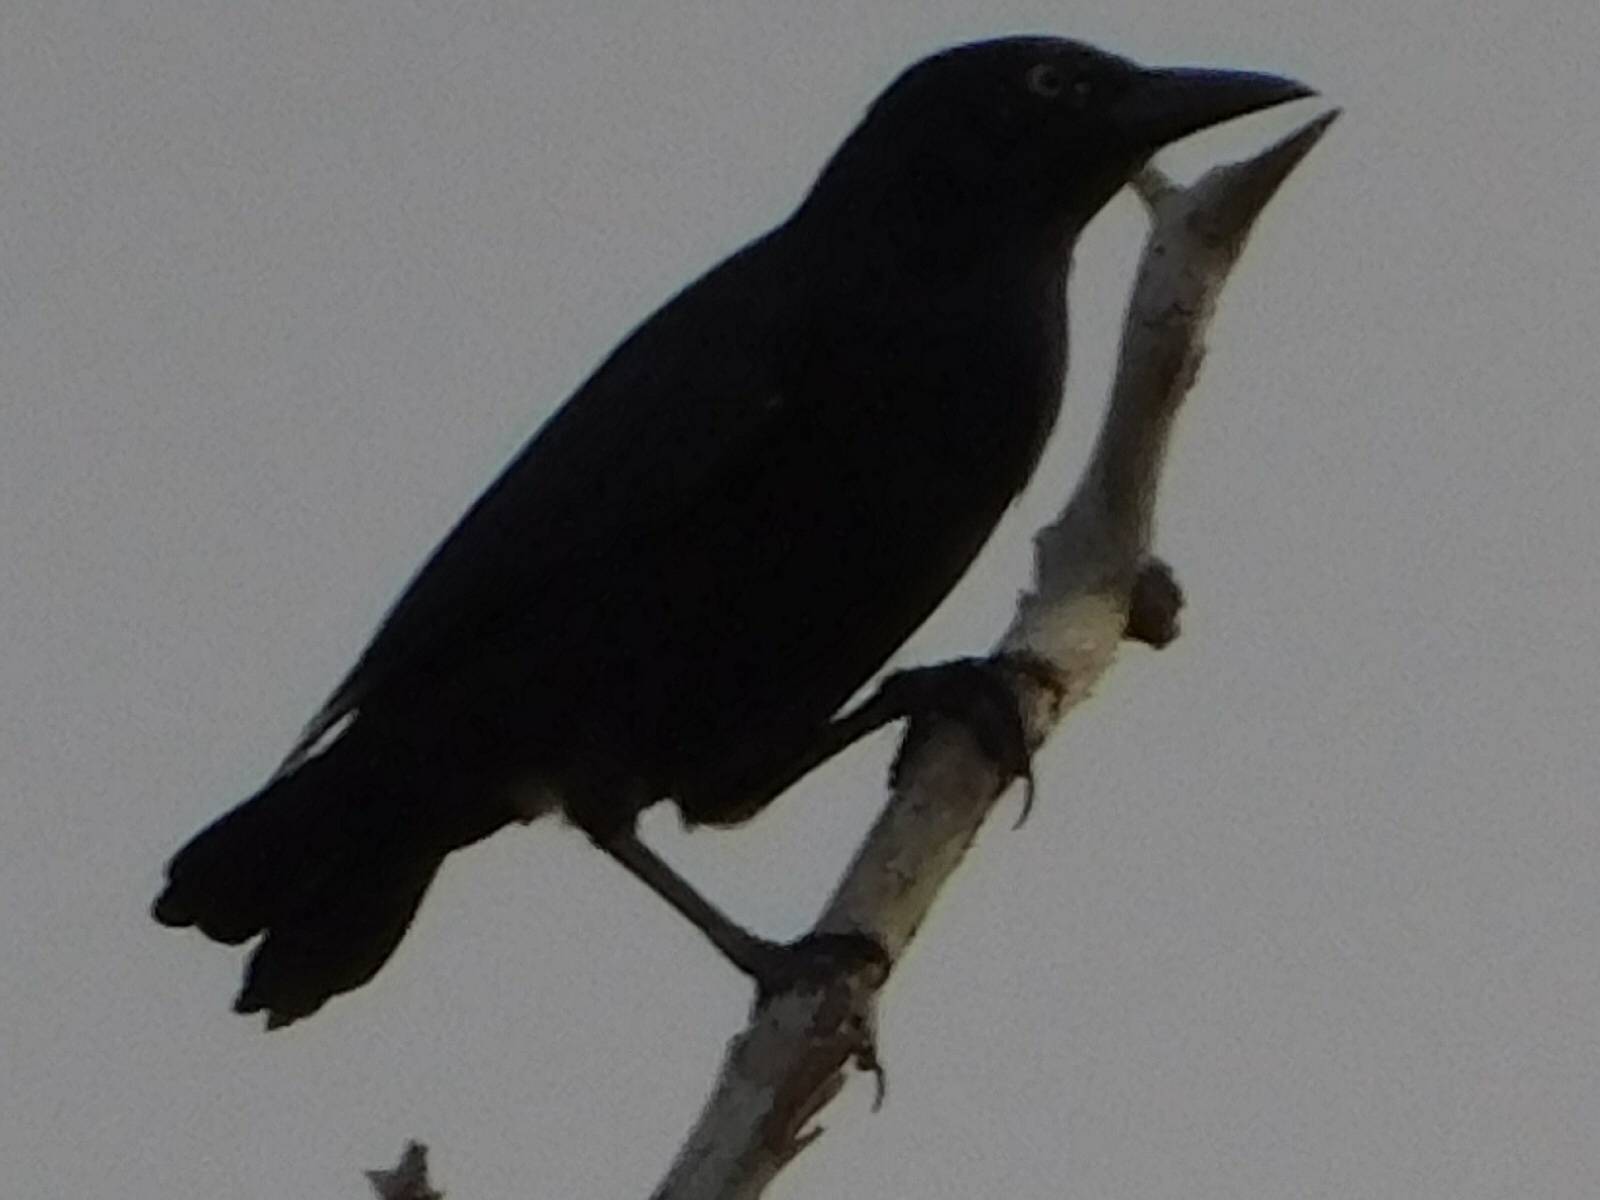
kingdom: Animalia
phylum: Chordata
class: Aves
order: Passeriformes
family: Icteridae
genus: Quiscalus
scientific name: Quiscalus quiscula
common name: Common grackle
